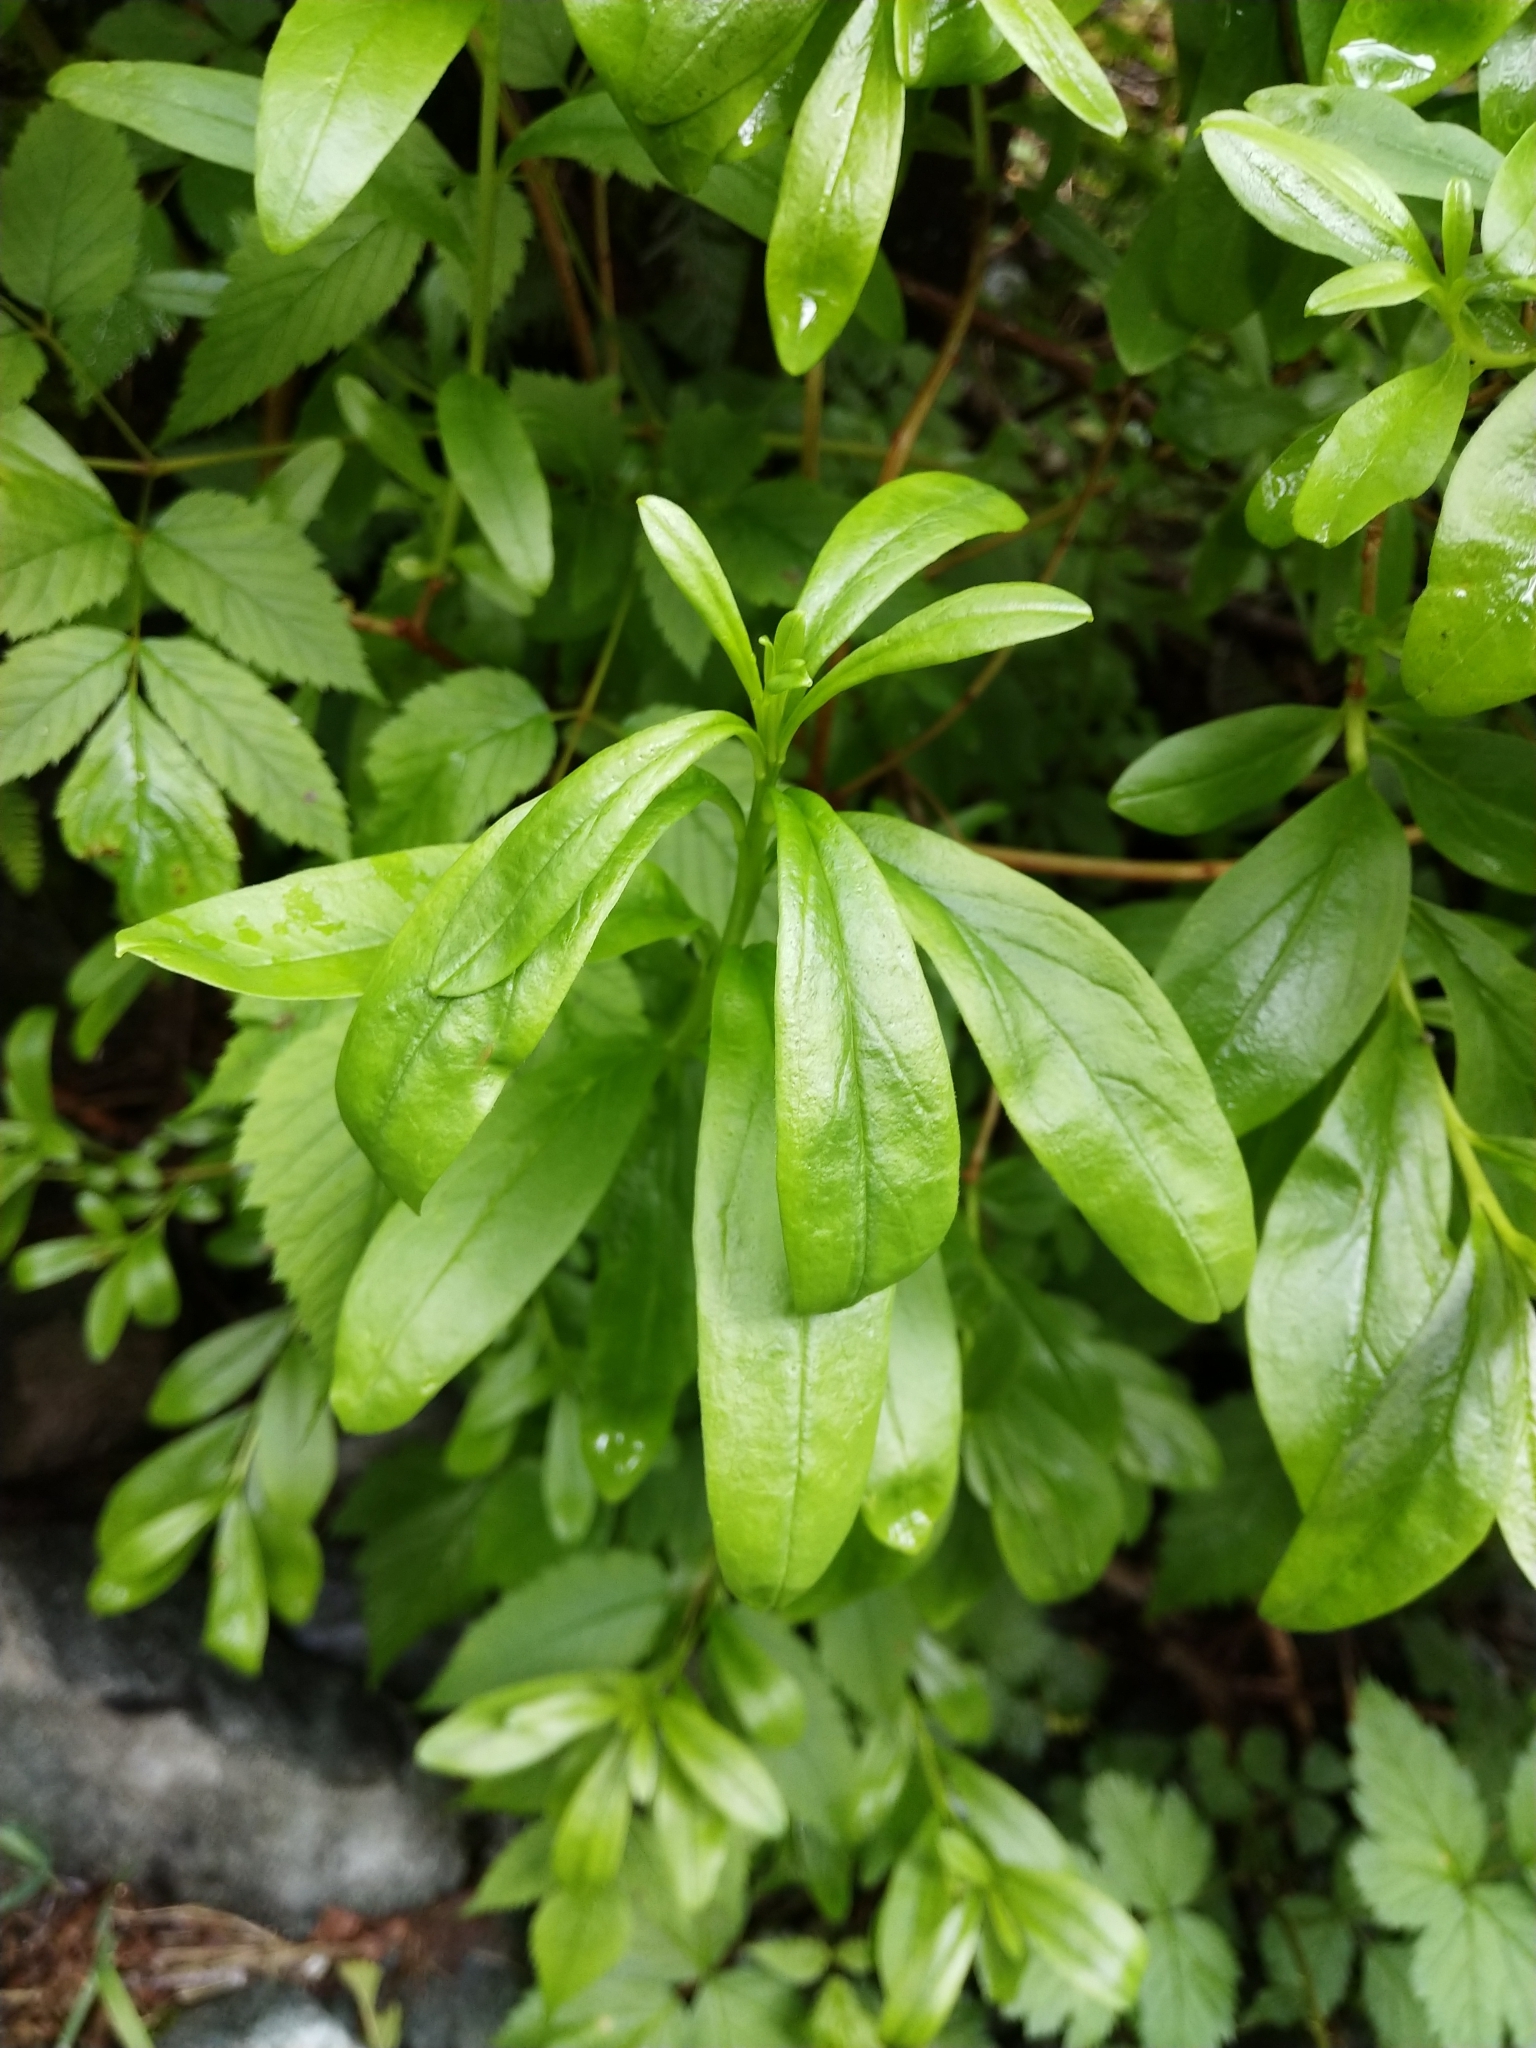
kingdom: Plantae
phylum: Tracheophyta
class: Magnoliopsida
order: Ericales
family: Ericaceae
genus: Elliottia
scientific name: Elliottia pyroliflora
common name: Copperbush
